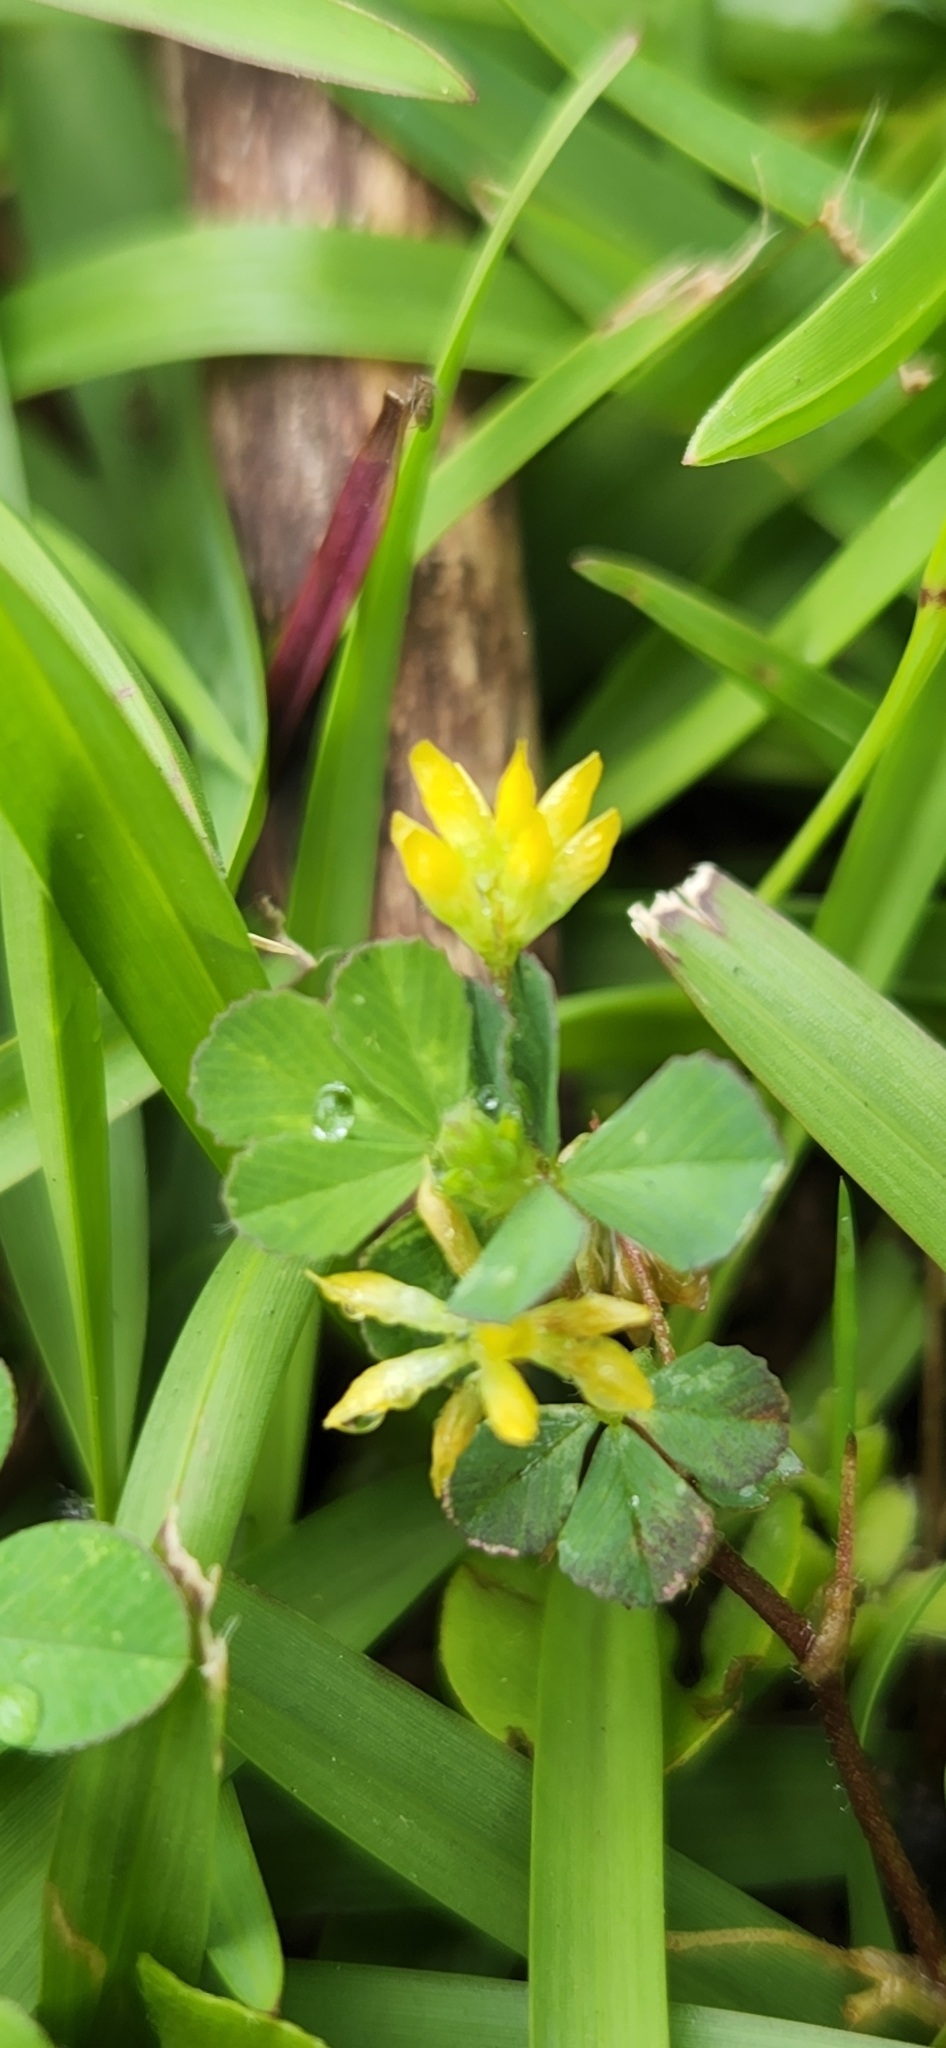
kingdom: Plantae
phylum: Tracheophyta
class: Magnoliopsida
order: Fabales
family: Fabaceae
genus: Trifolium
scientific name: Trifolium dubium
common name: Suckling clover
